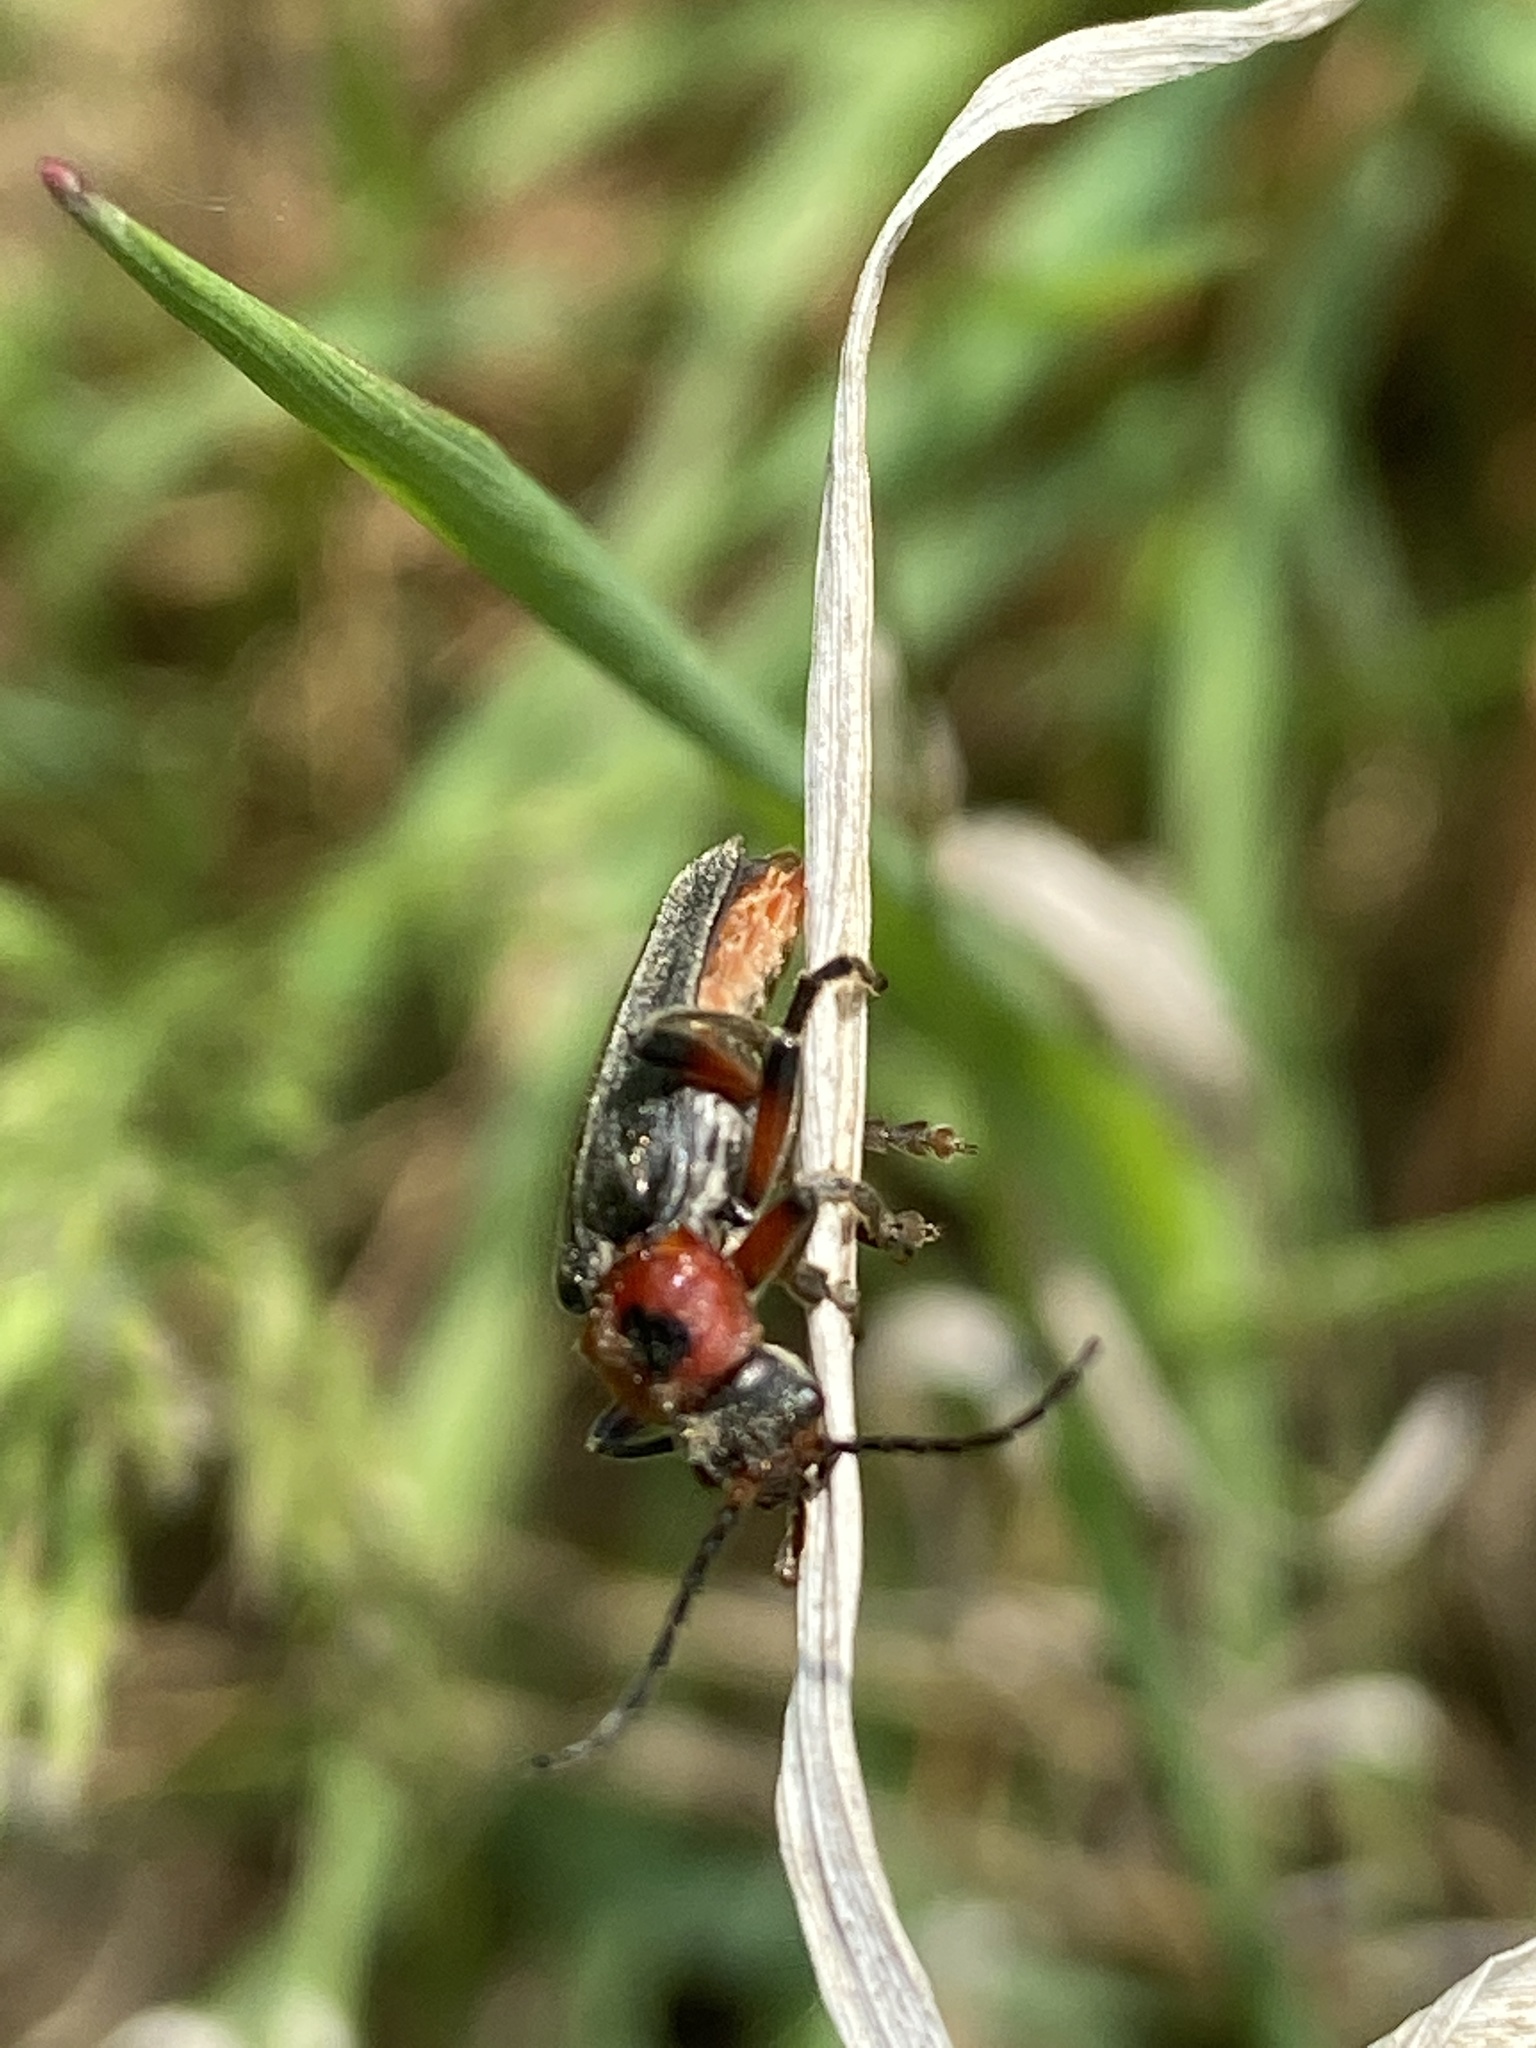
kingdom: Animalia
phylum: Arthropoda
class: Insecta
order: Coleoptera
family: Cantharidae
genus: Cantharis
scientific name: Cantharis rustica
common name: Soldier beetle
